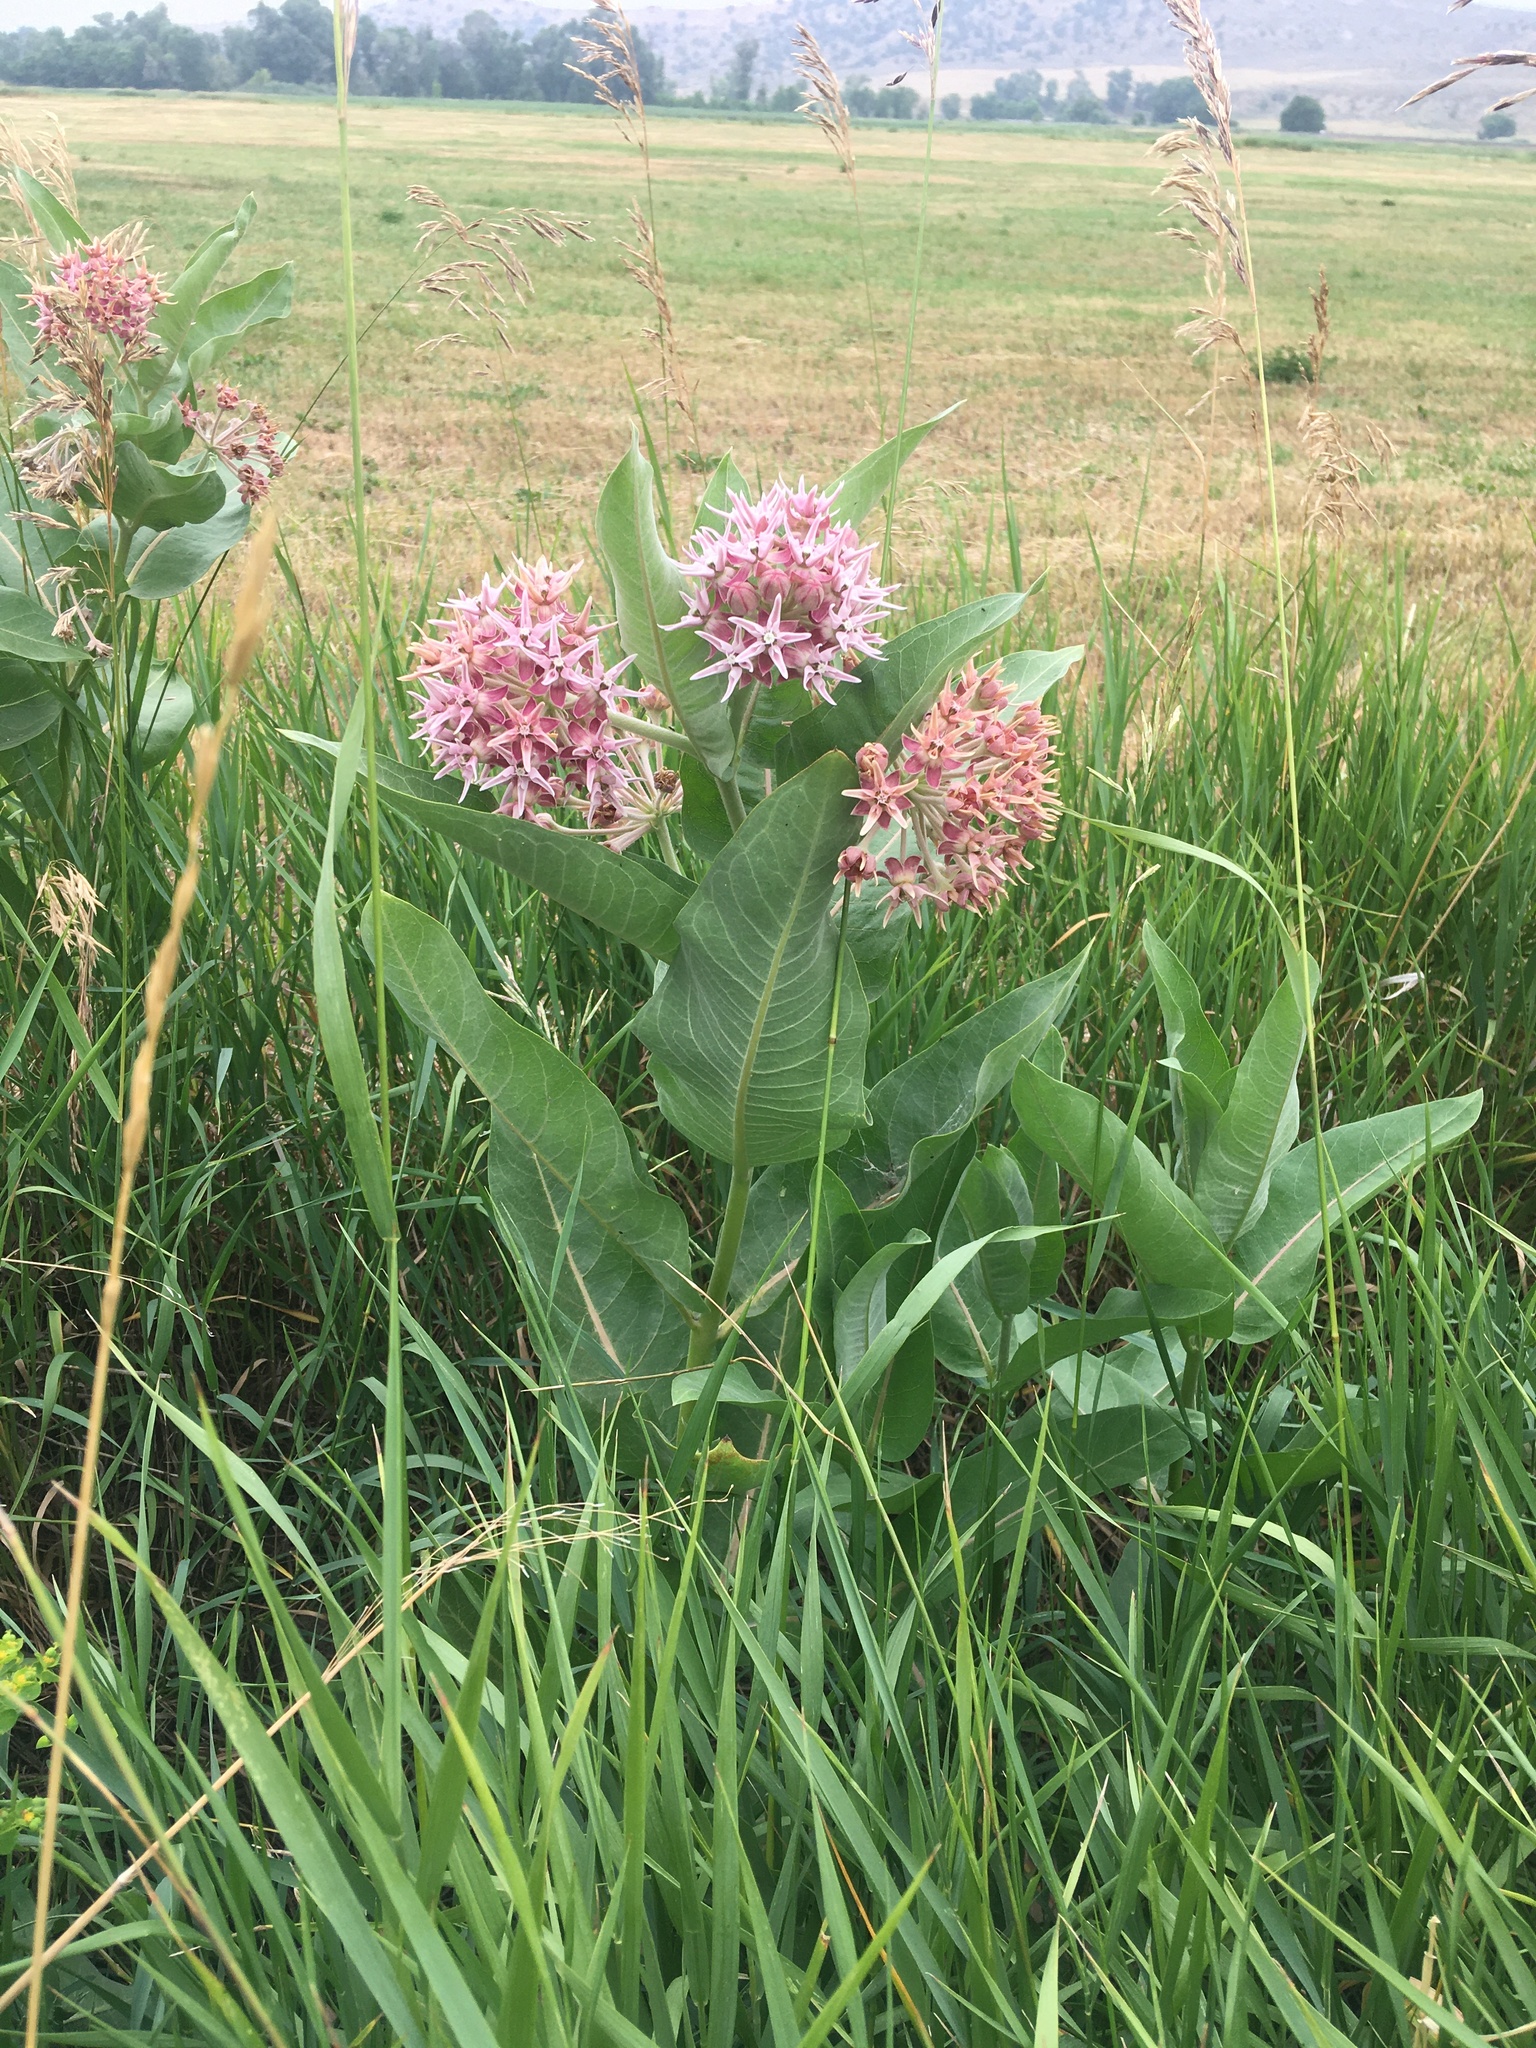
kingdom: Plantae
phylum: Tracheophyta
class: Magnoliopsida
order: Gentianales
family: Apocynaceae
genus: Asclepias
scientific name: Asclepias speciosa
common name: Showy milkweed
